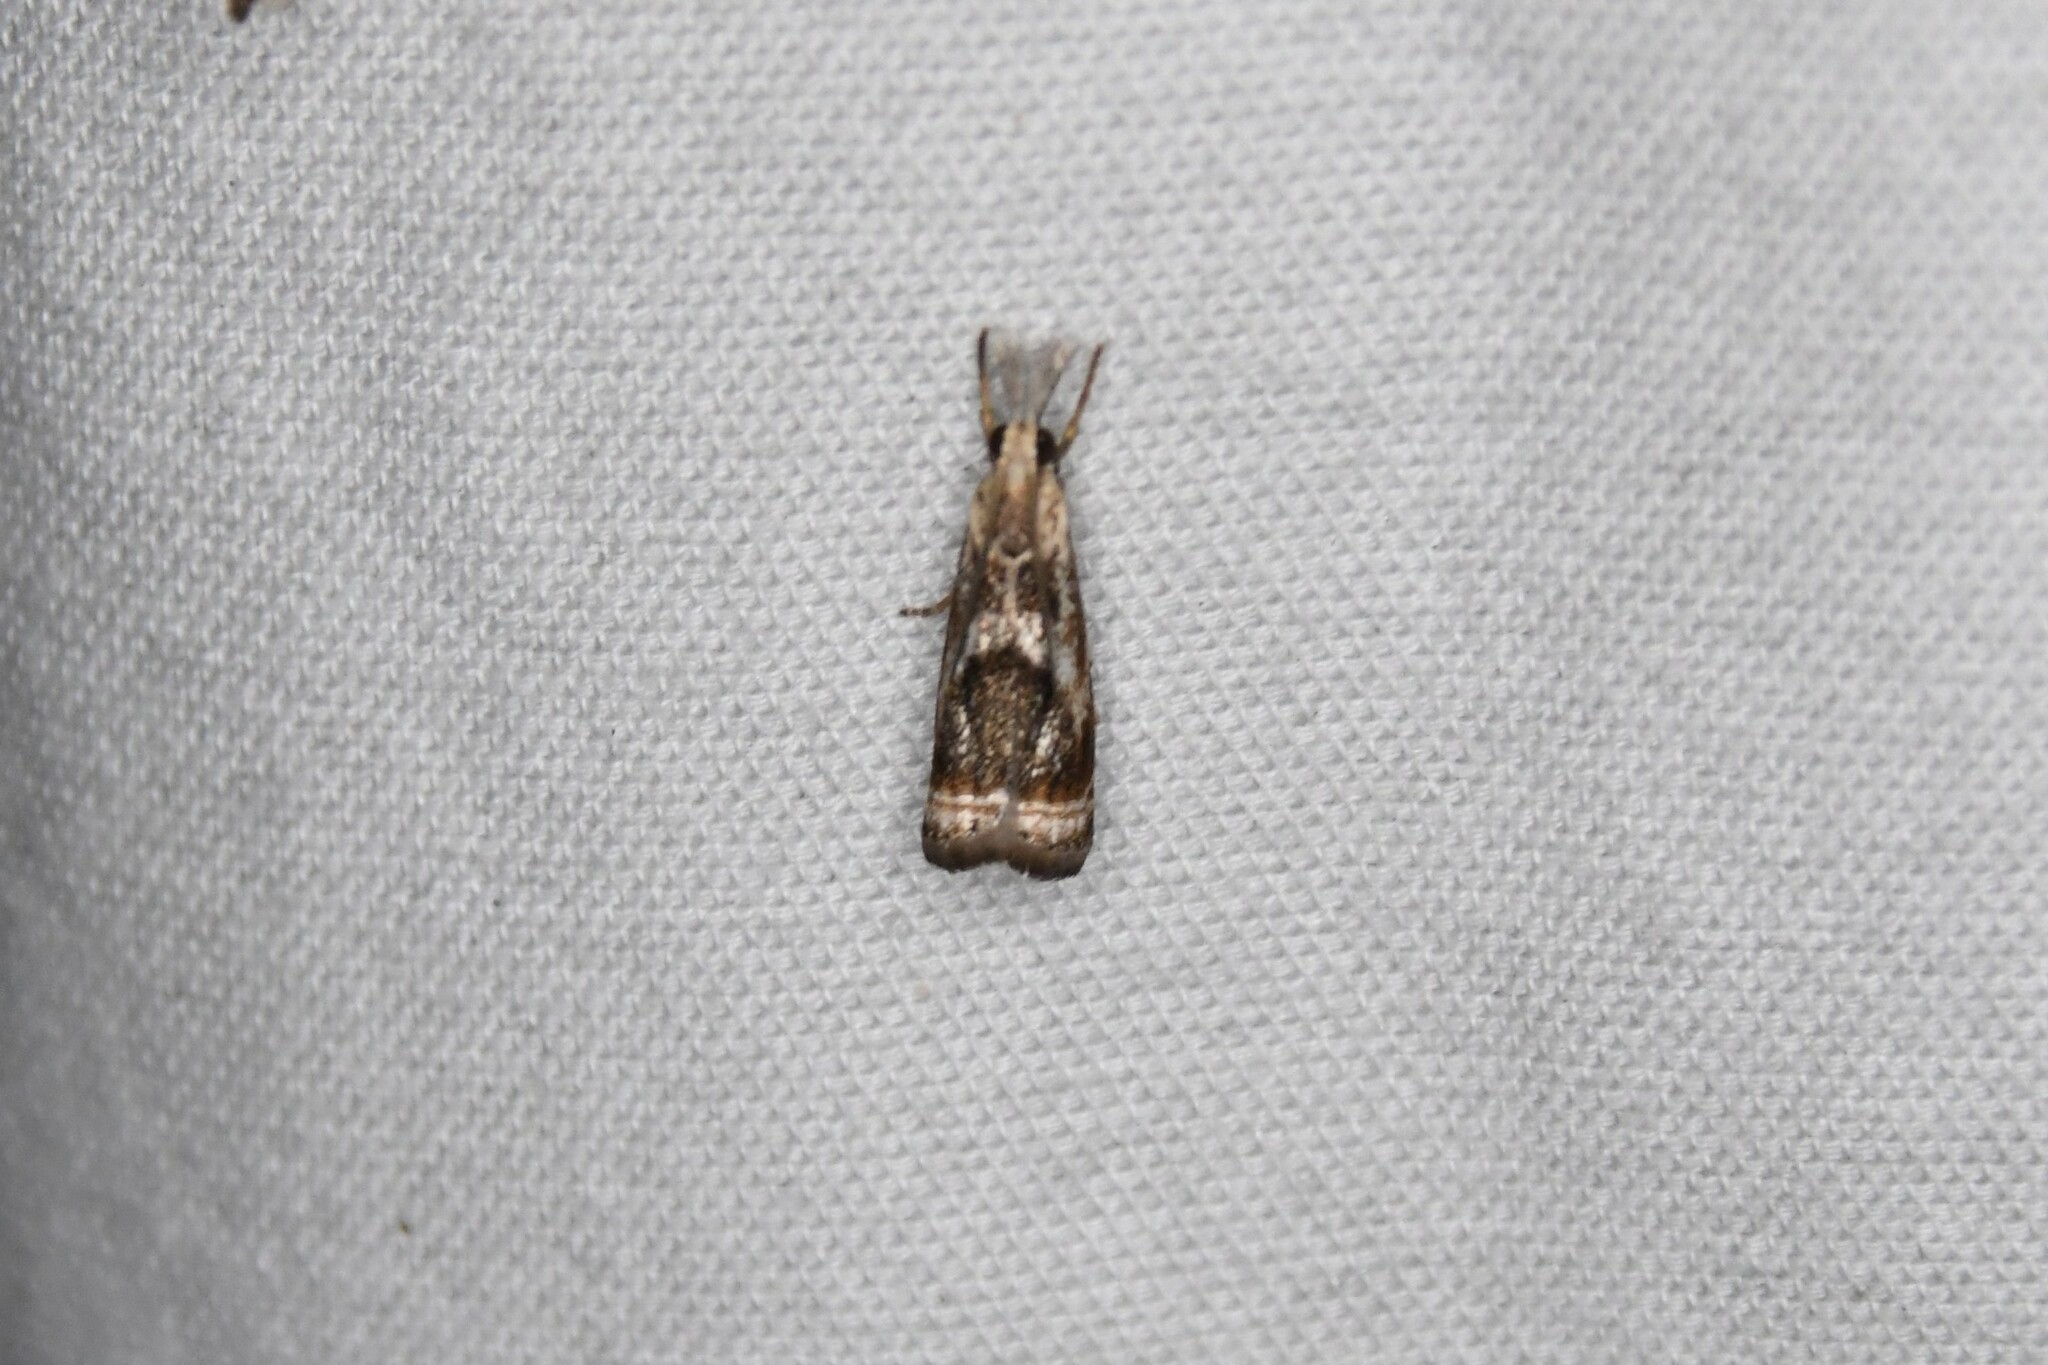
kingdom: Animalia
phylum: Arthropoda
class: Insecta
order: Lepidoptera
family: Crambidae
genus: Microcrambus
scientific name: Microcrambus elegans
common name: Elegant grass-veneer
